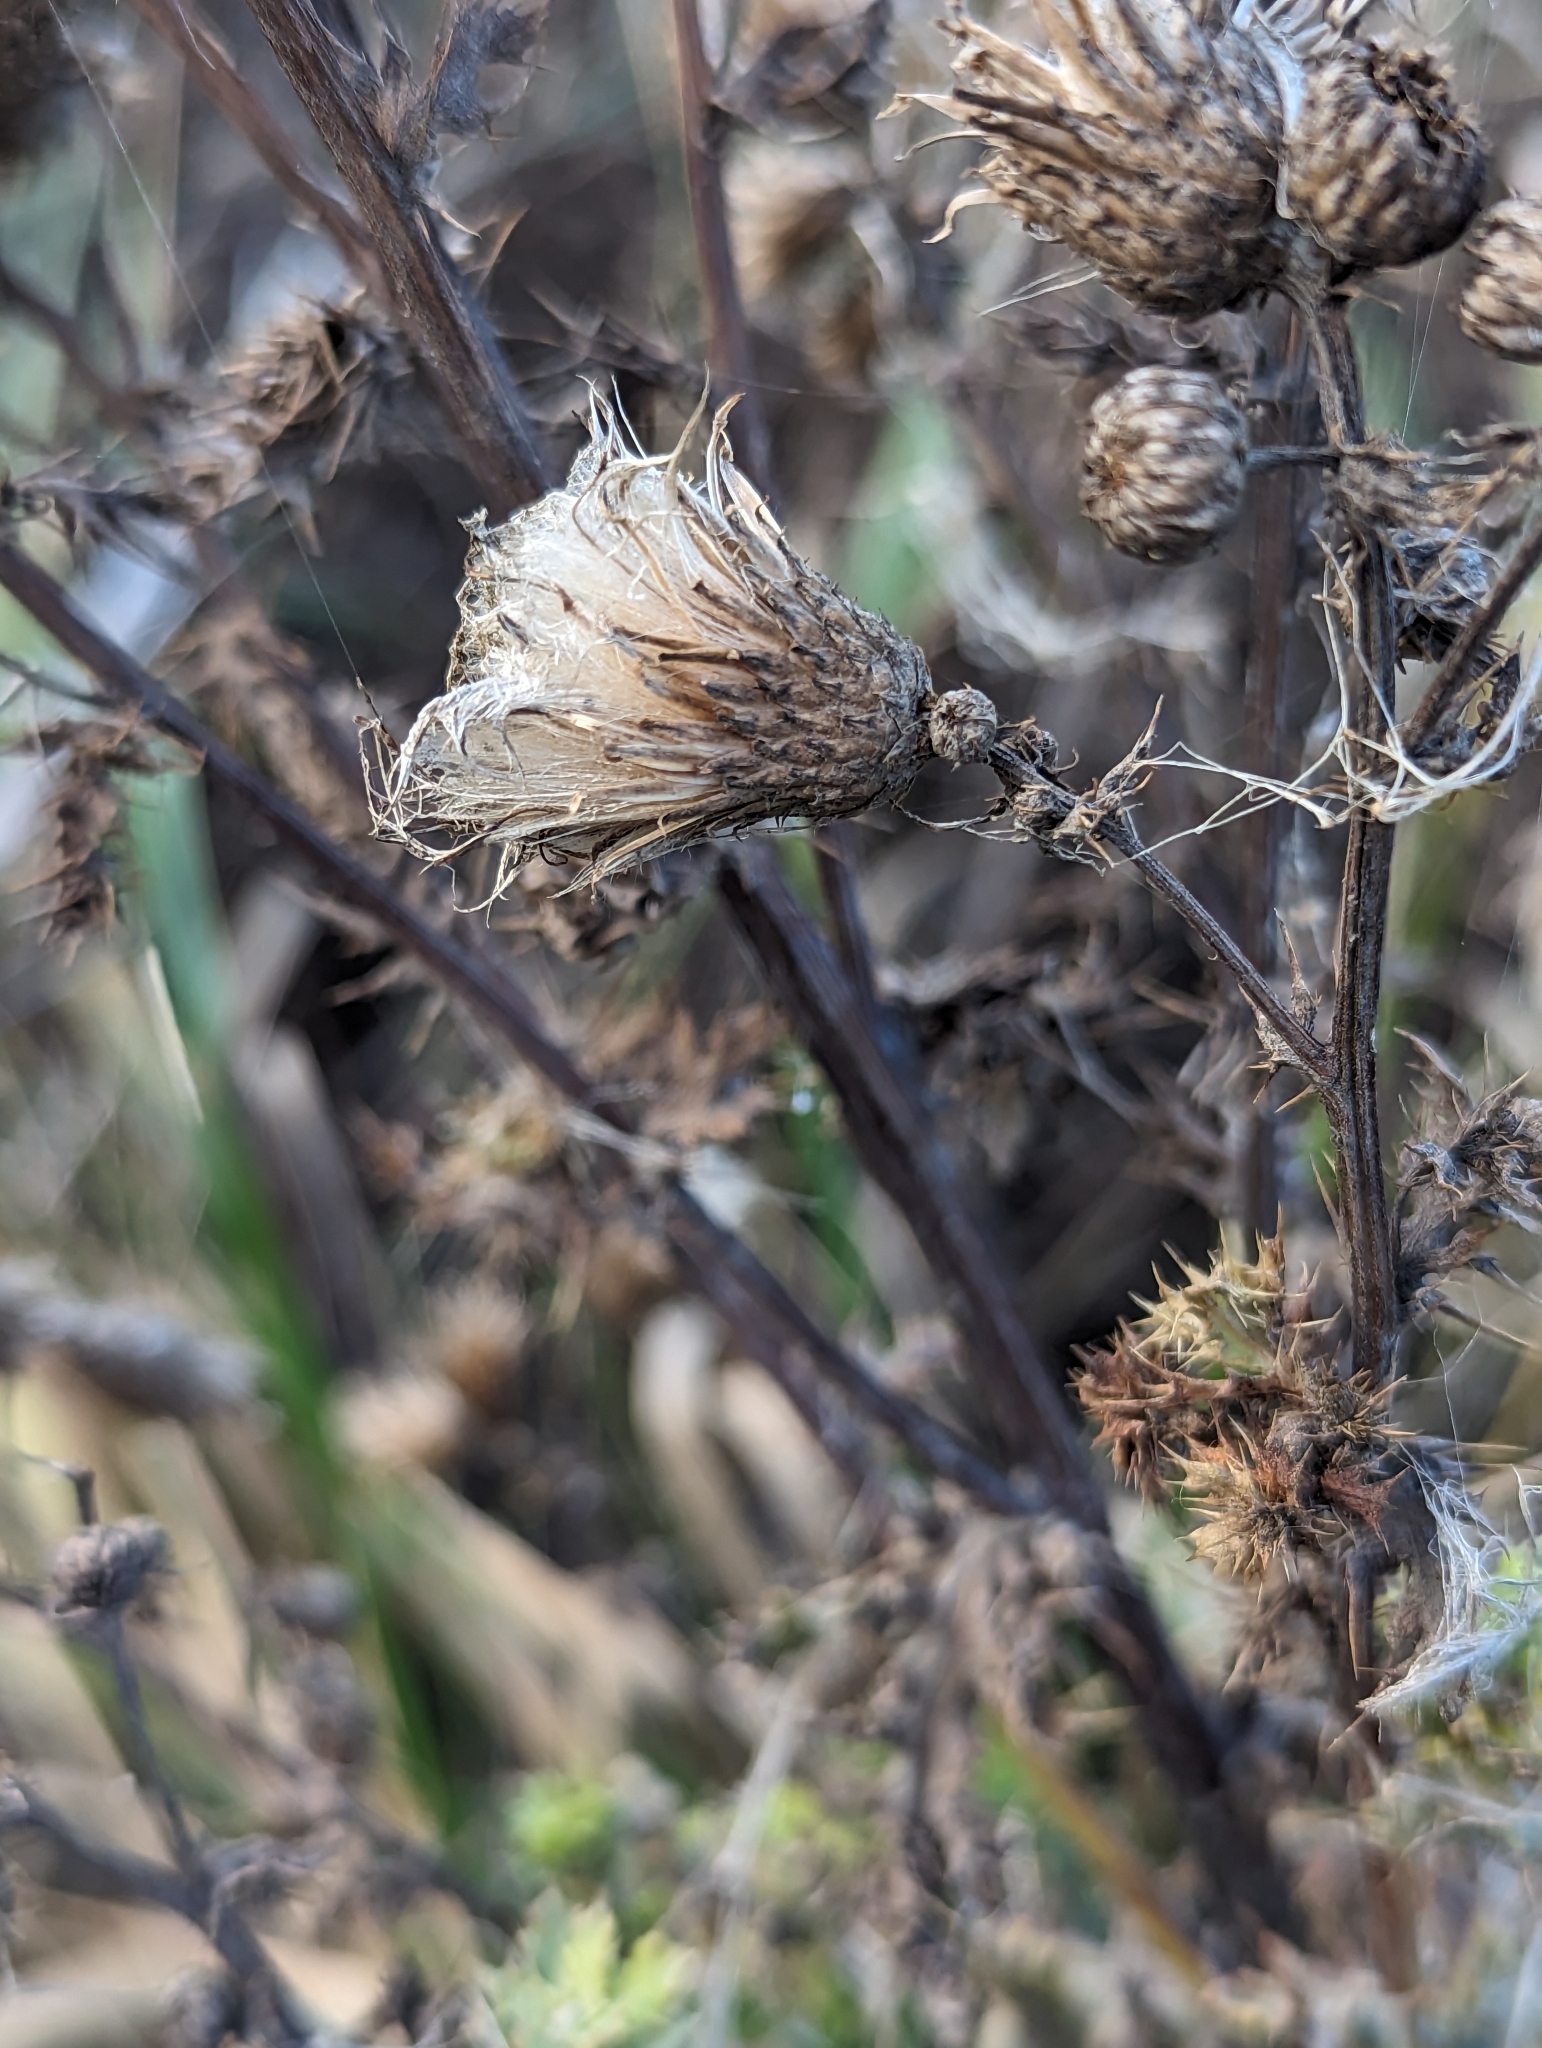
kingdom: Plantae
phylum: Tracheophyta
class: Magnoliopsida
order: Asterales
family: Asteraceae
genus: Cirsium
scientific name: Cirsium arvense
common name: Creeping thistle
